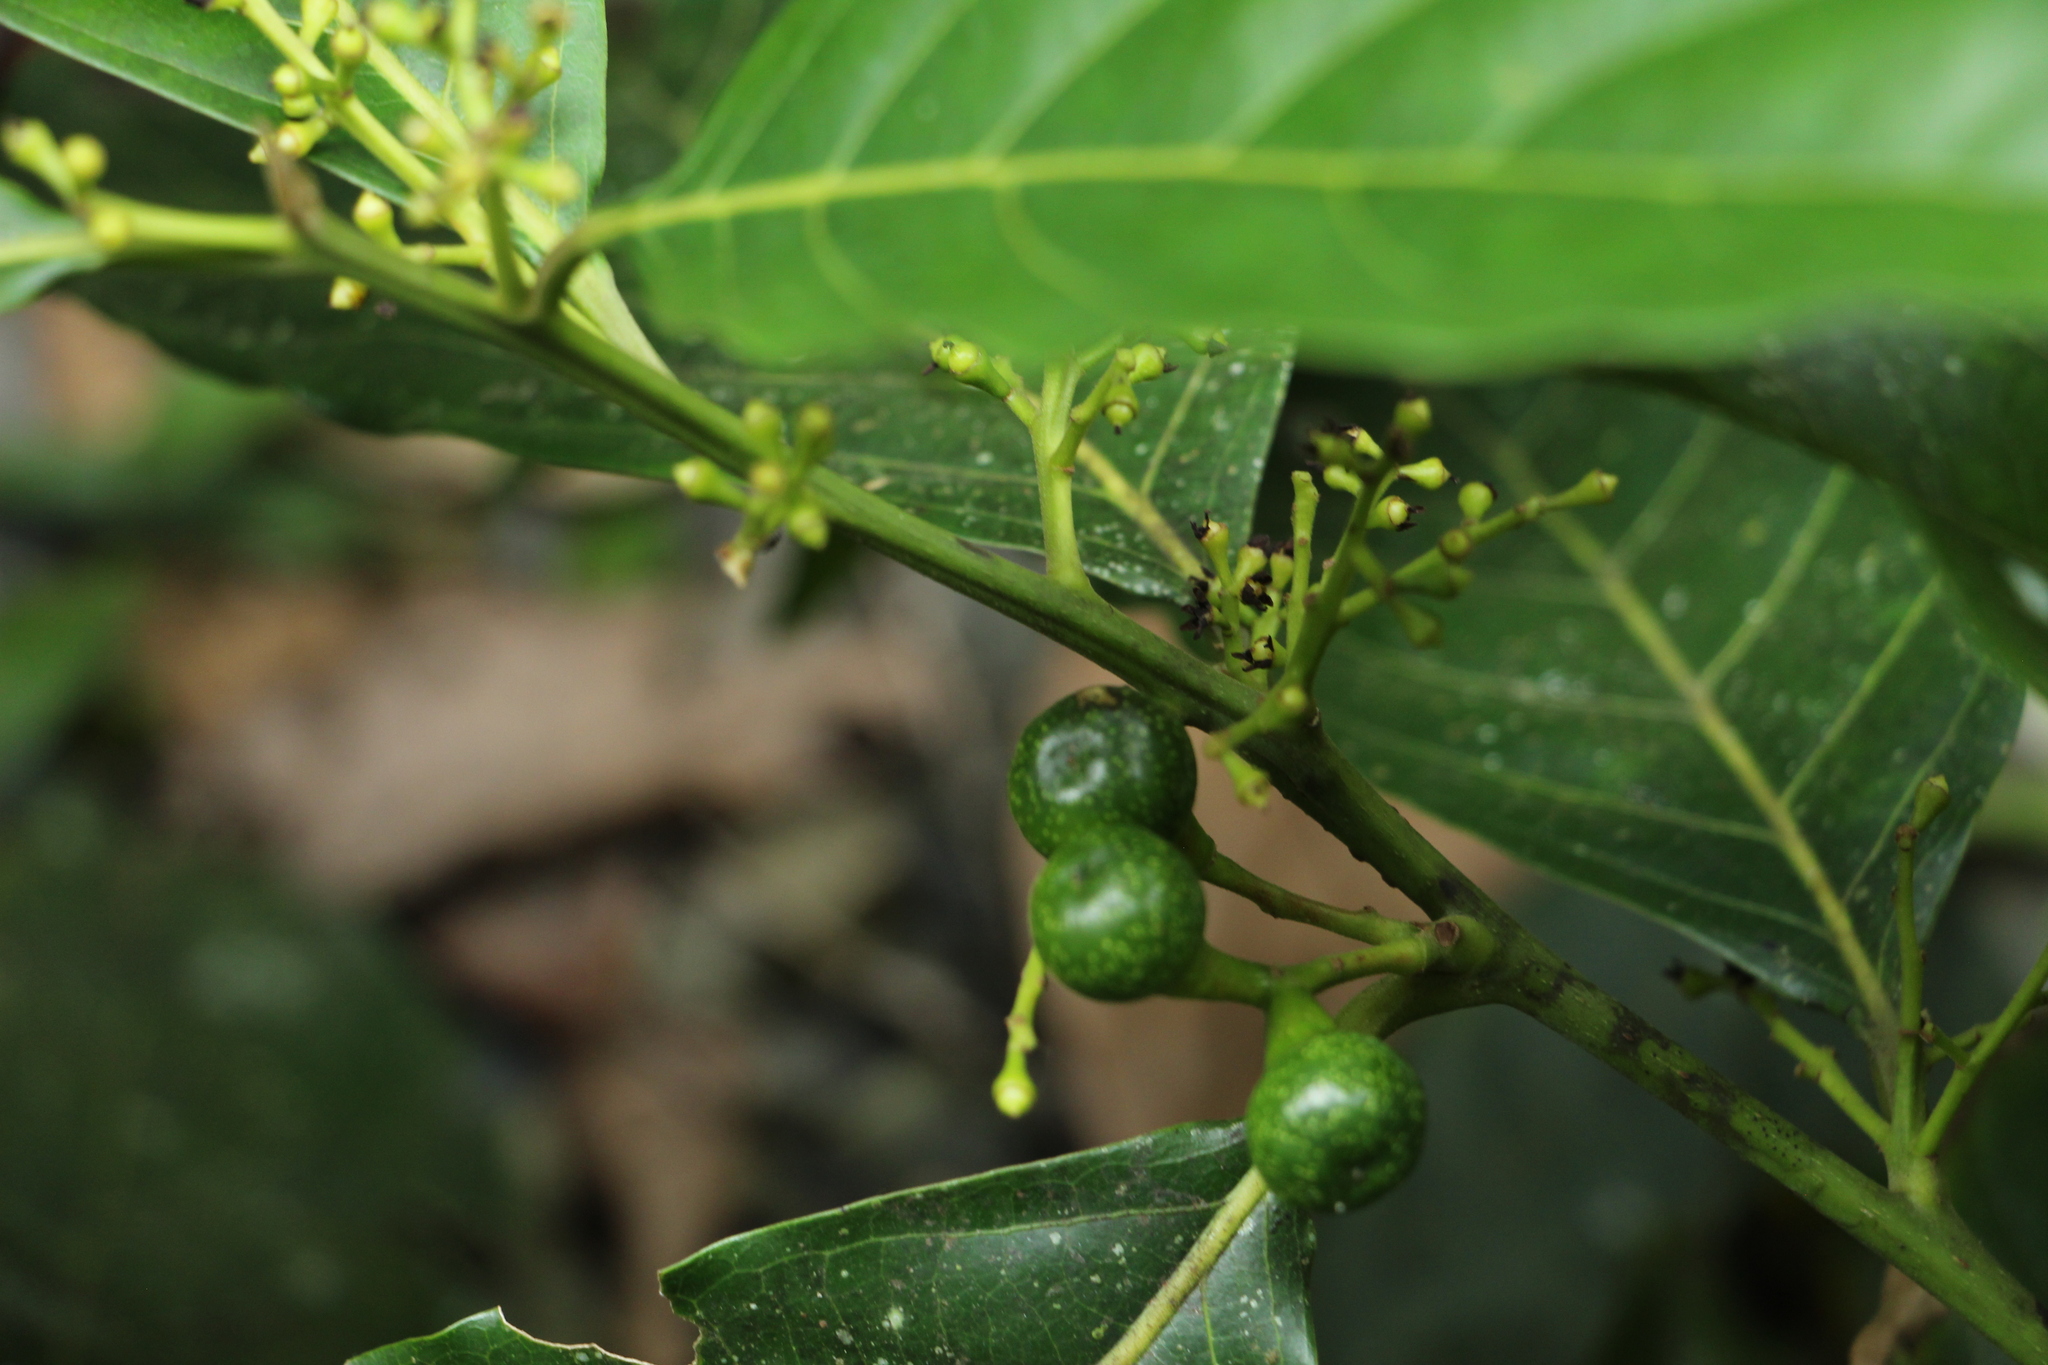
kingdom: Plantae
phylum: Tracheophyta
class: Magnoliopsida
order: Laurales
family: Lauraceae
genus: Ocotea
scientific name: Ocotea puberula
